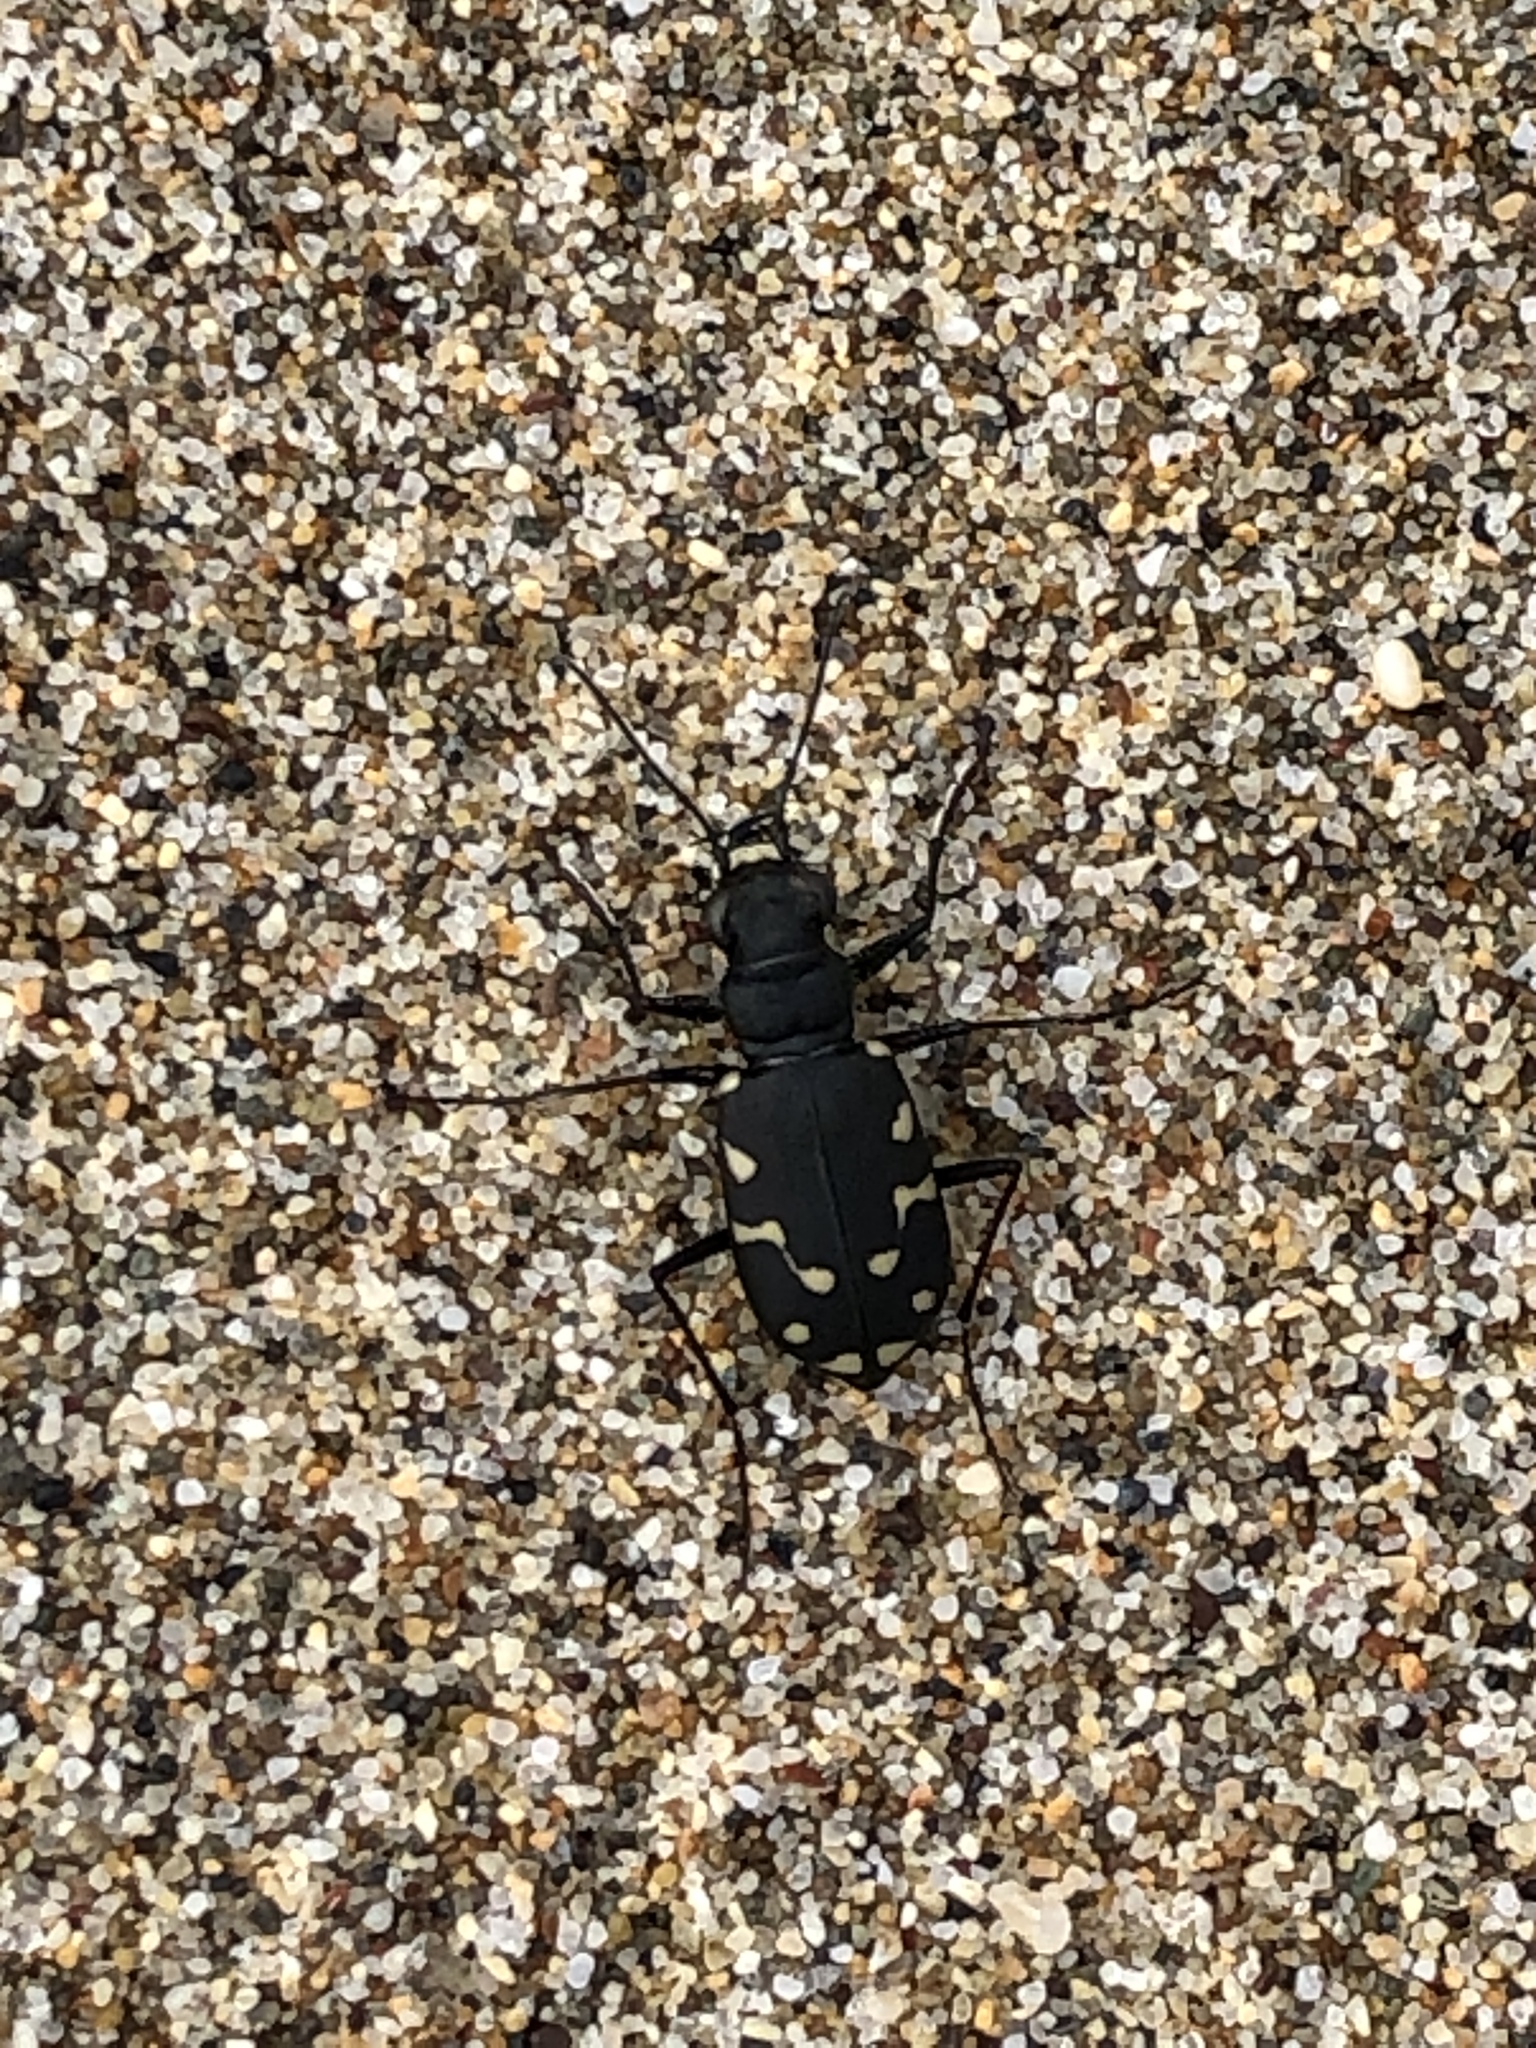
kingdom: Animalia
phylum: Arthropoda
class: Insecta
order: Coleoptera
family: Carabidae
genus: Cicindela
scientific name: Cicindela oregona
